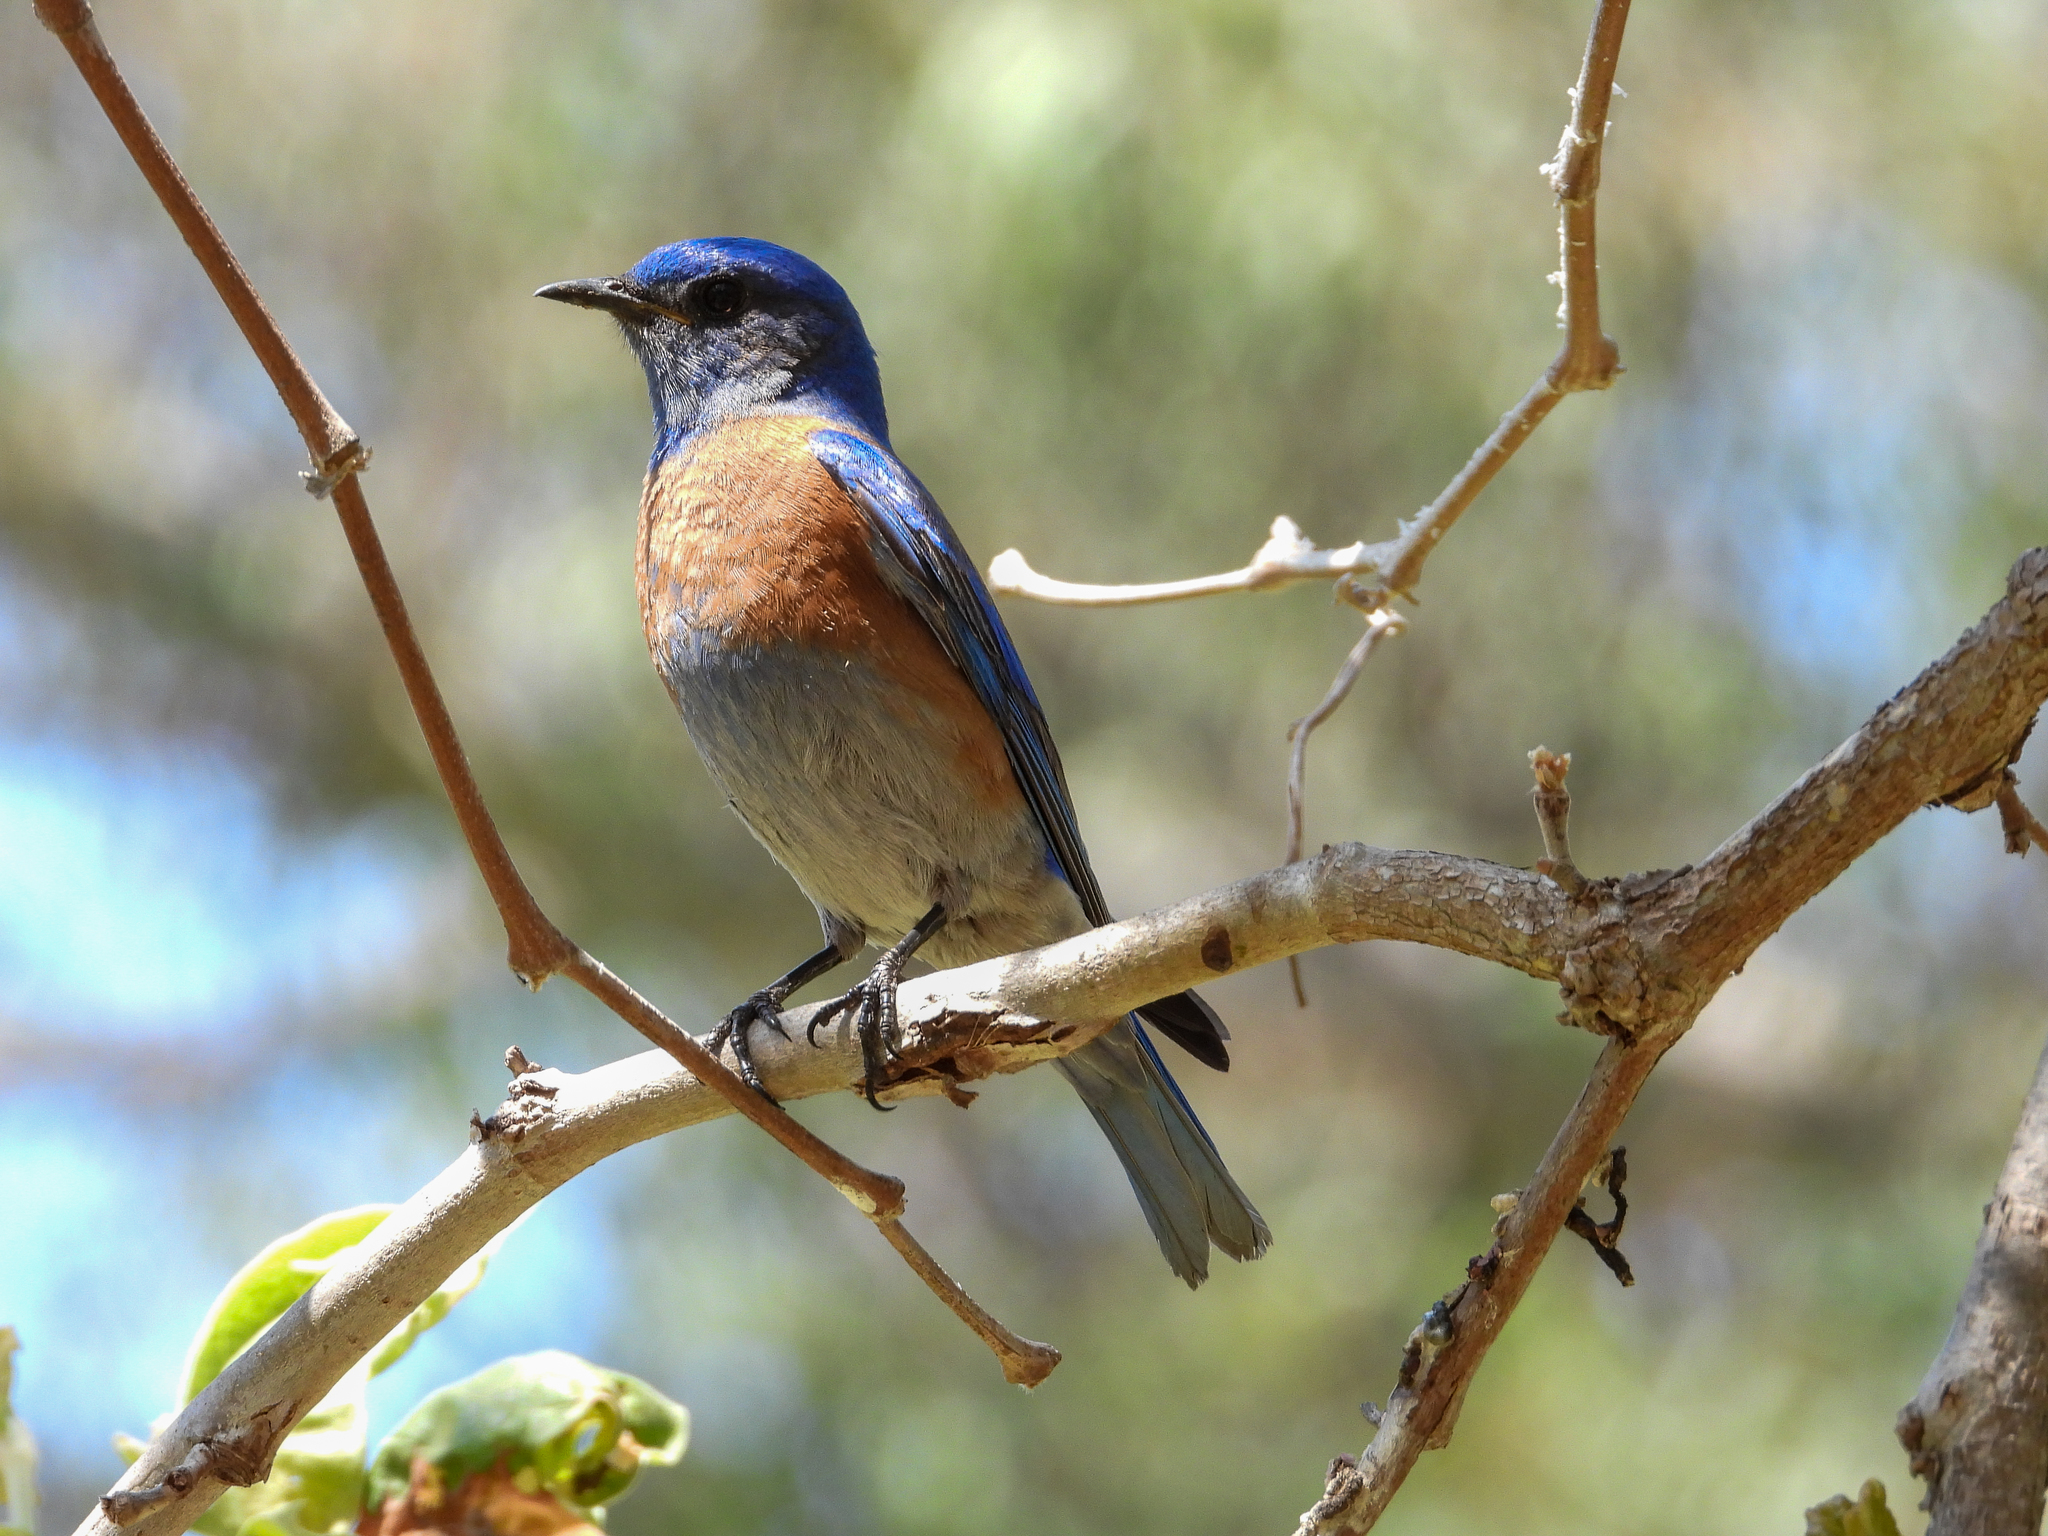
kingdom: Animalia
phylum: Chordata
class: Aves
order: Passeriformes
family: Turdidae
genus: Sialia
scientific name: Sialia mexicana
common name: Western bluebird
